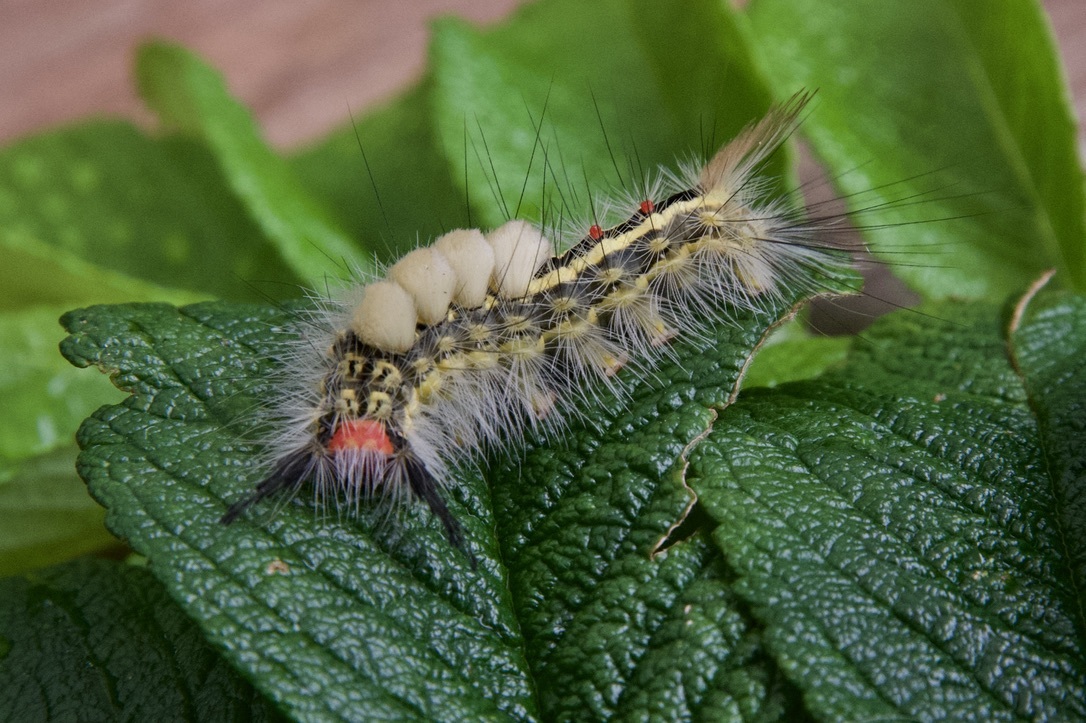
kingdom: Animalia
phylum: Arthropoda
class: Insecta
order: Lepidoptera
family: Erebidae
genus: Orgyia
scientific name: Orgyia leucostigma
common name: White-marked tussock moth
